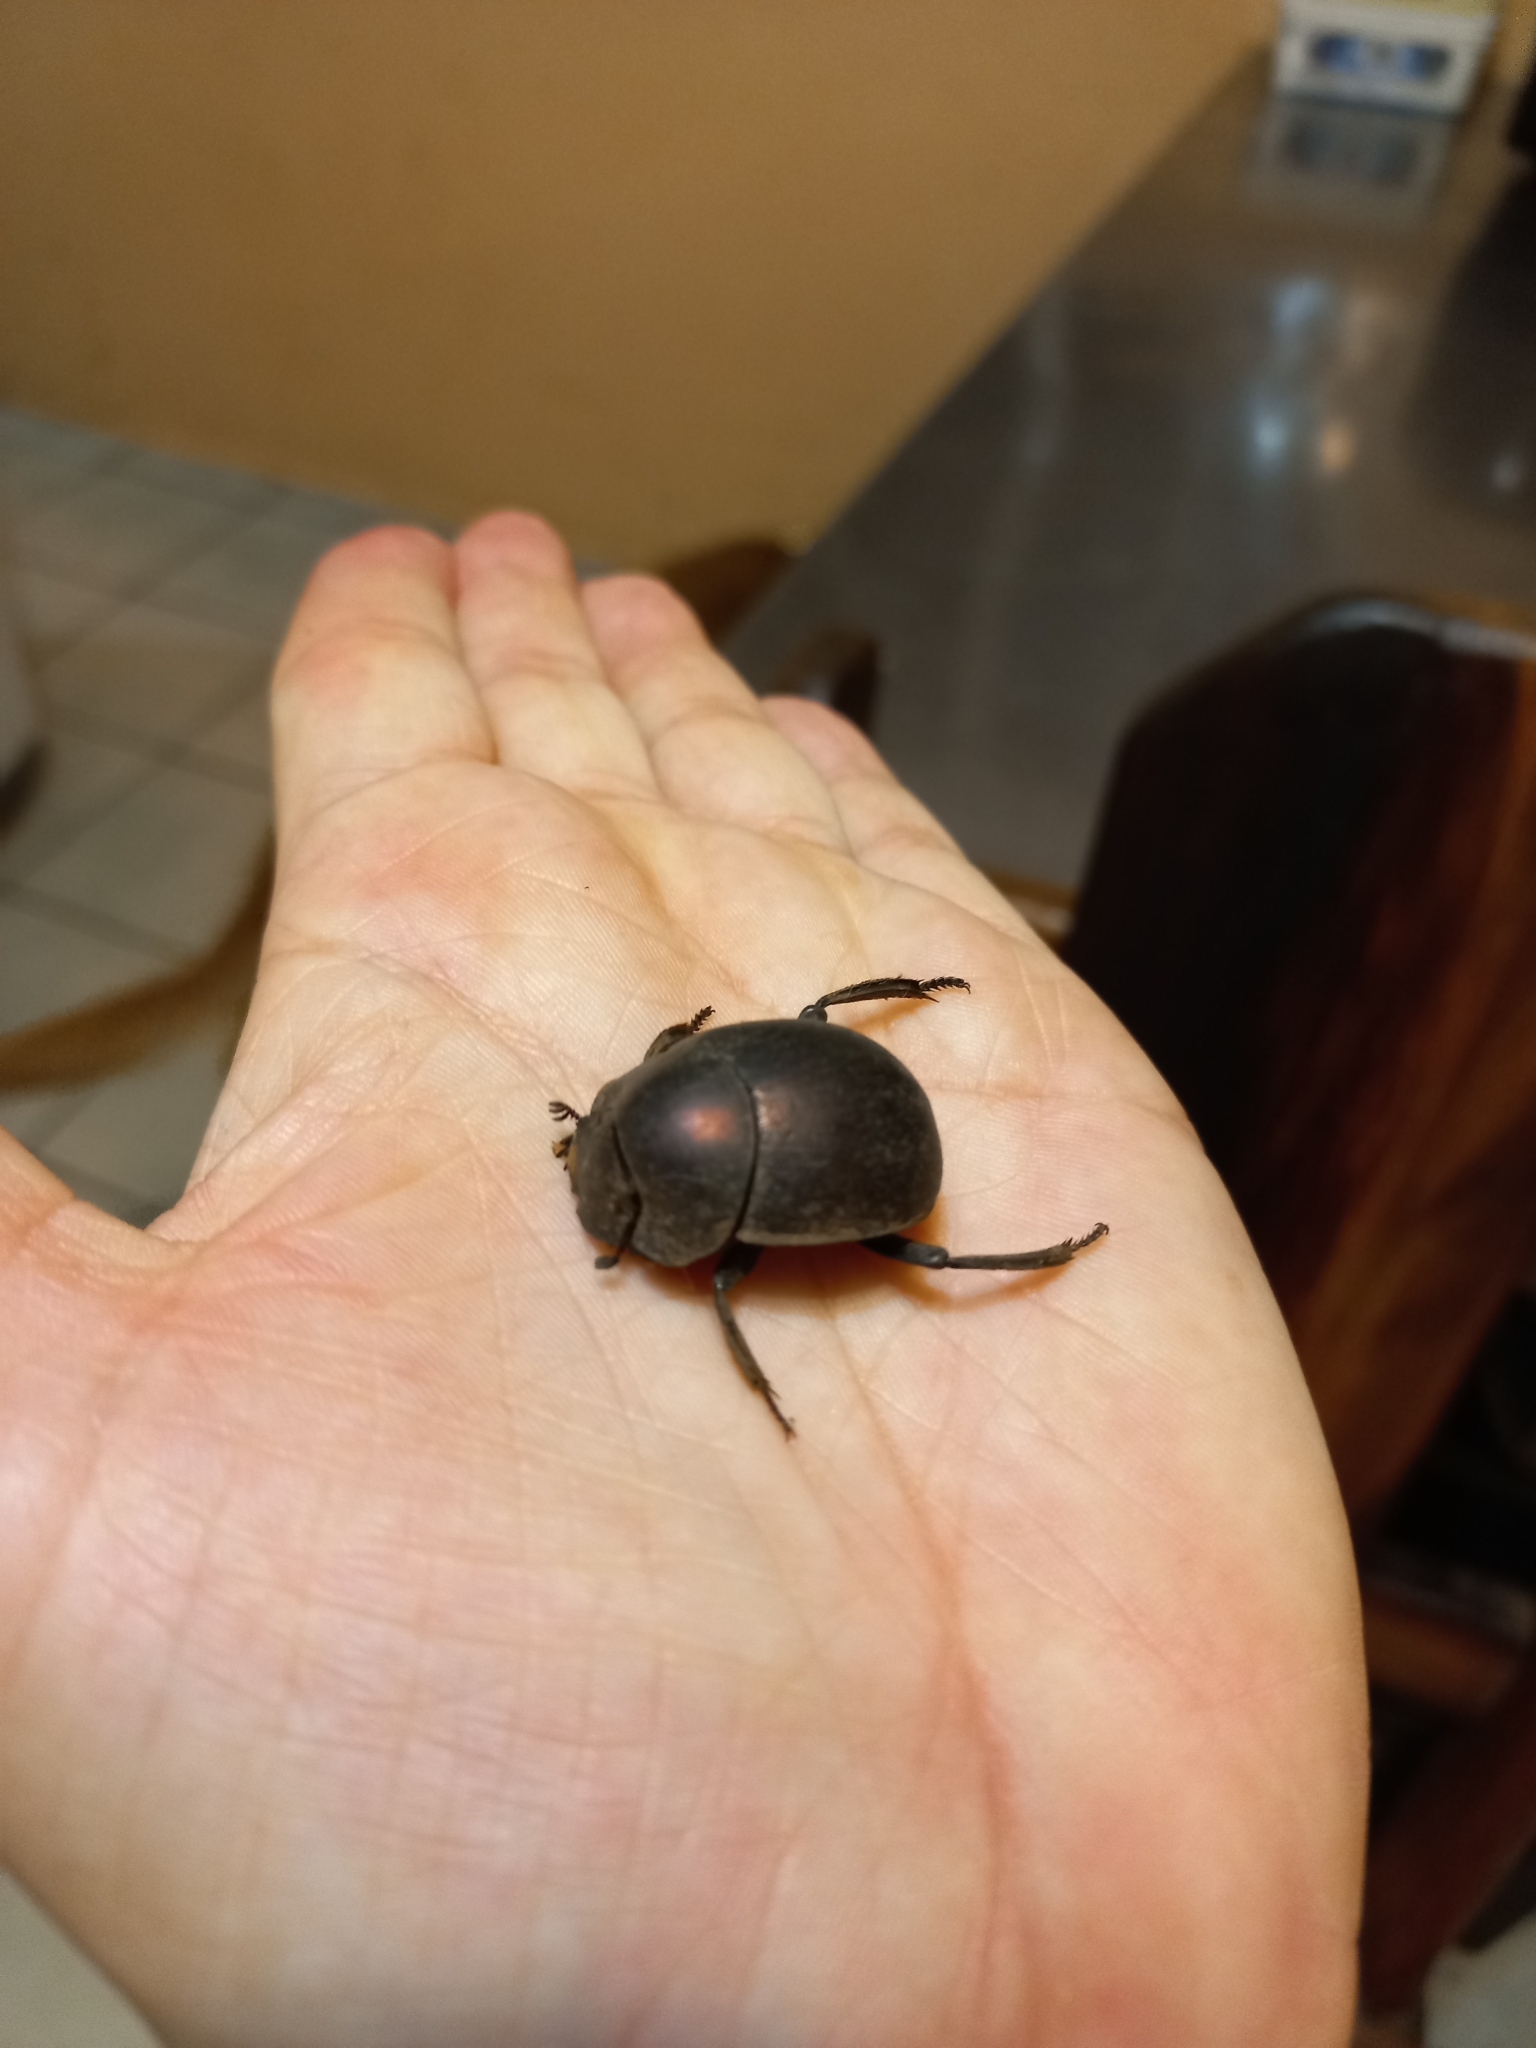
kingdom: Animalia
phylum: Arthropoda
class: Insecta
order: Coleoptera
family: Scarabaeidae
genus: Chalconotus
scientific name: Chalconotus convexus
